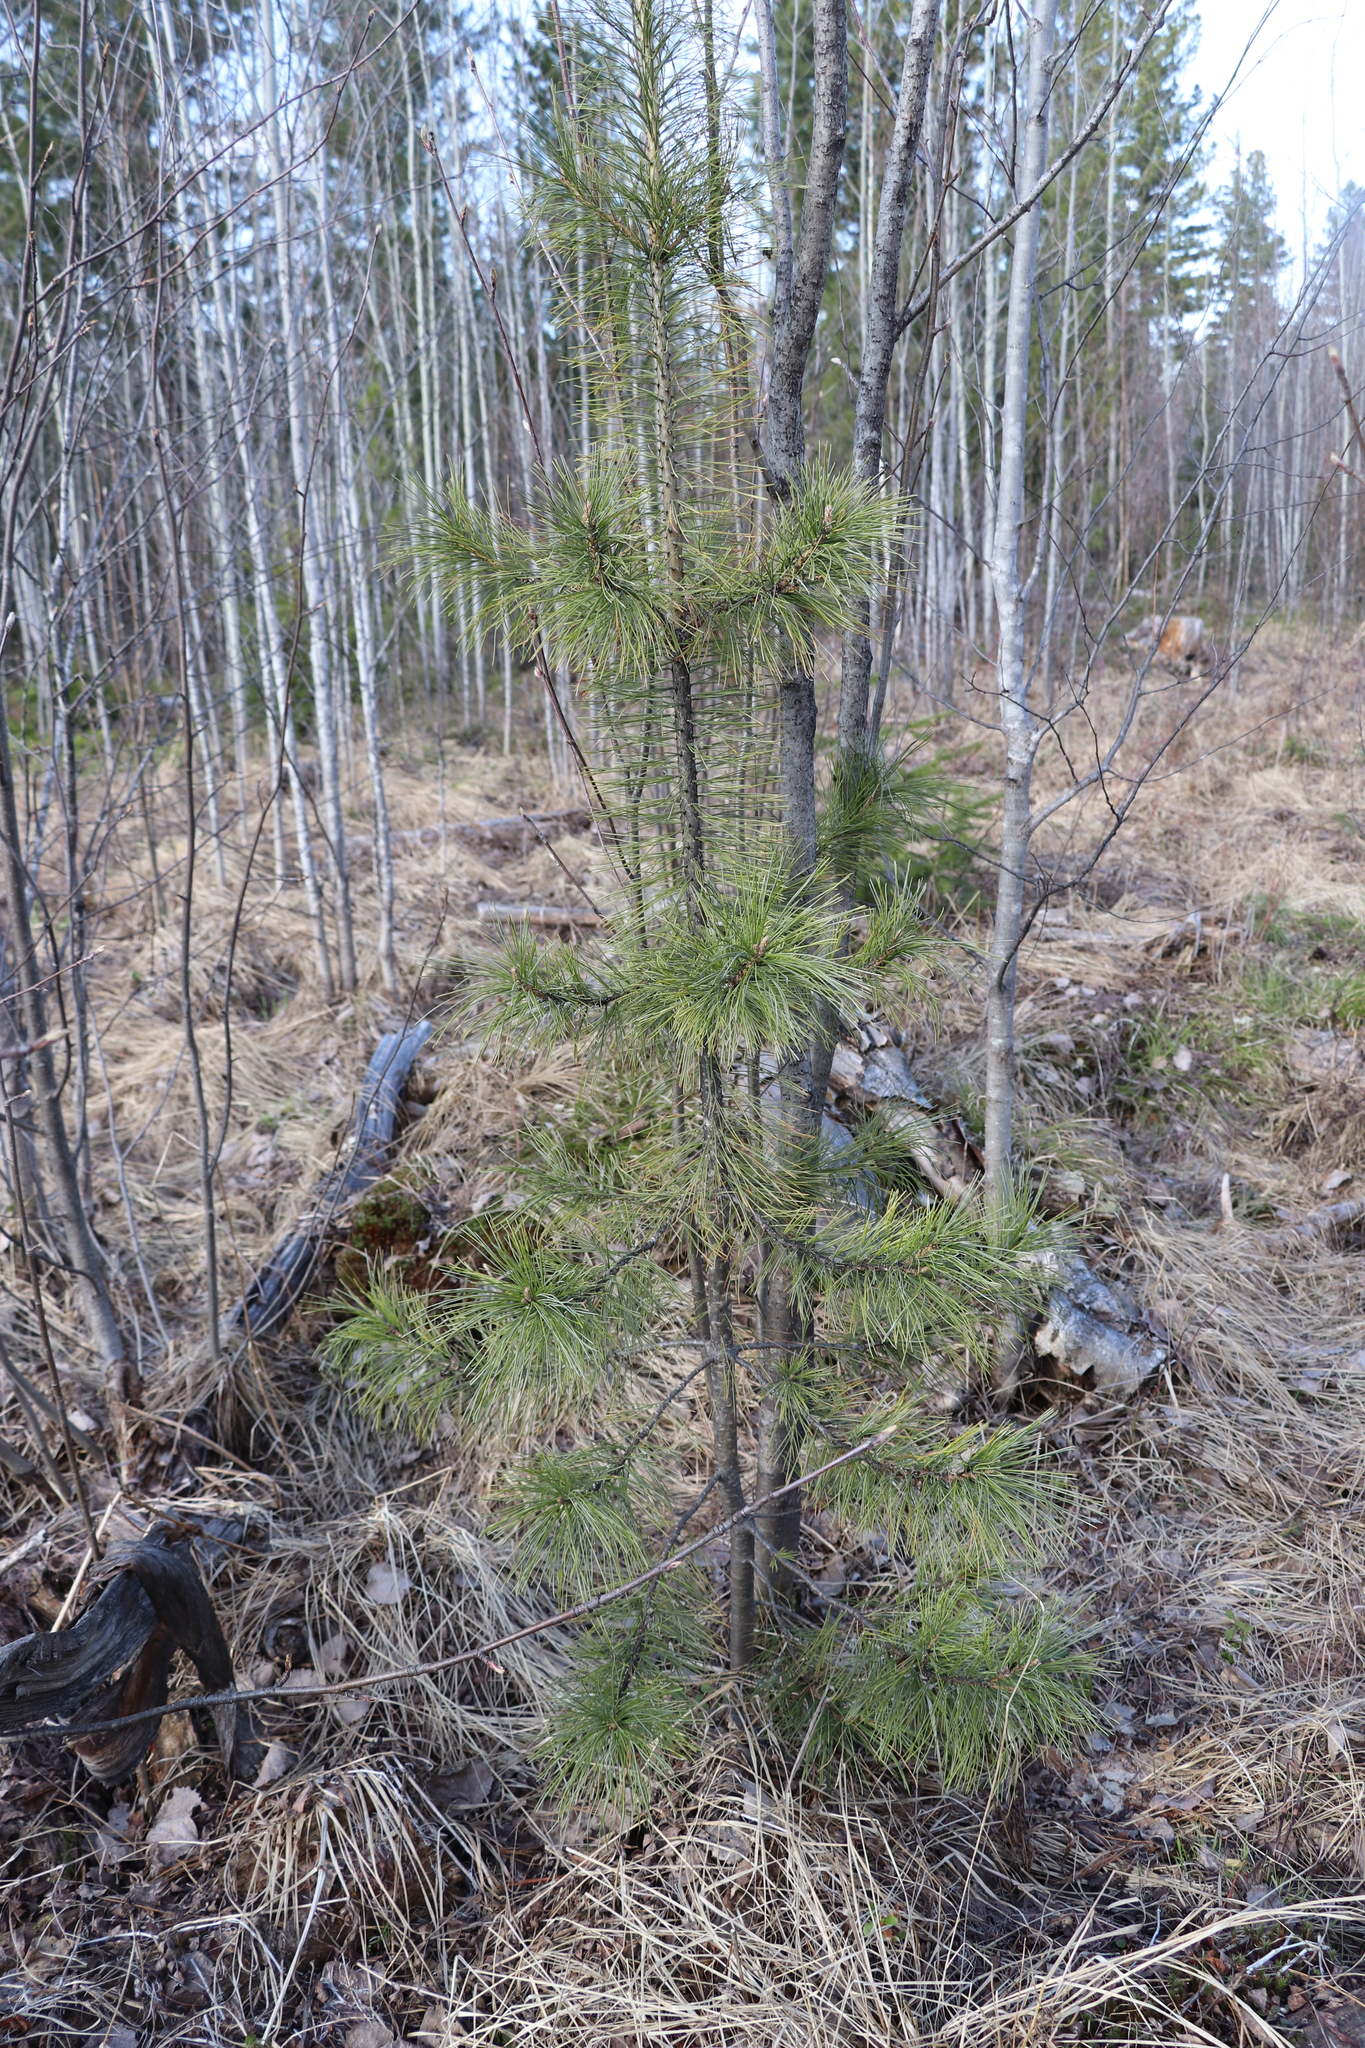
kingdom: Plantae
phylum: Tracheophyta
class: Pinopsida
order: Pinales
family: Pinaceae
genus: Pinus
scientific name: Pinus sibirica
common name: Siberian pine
